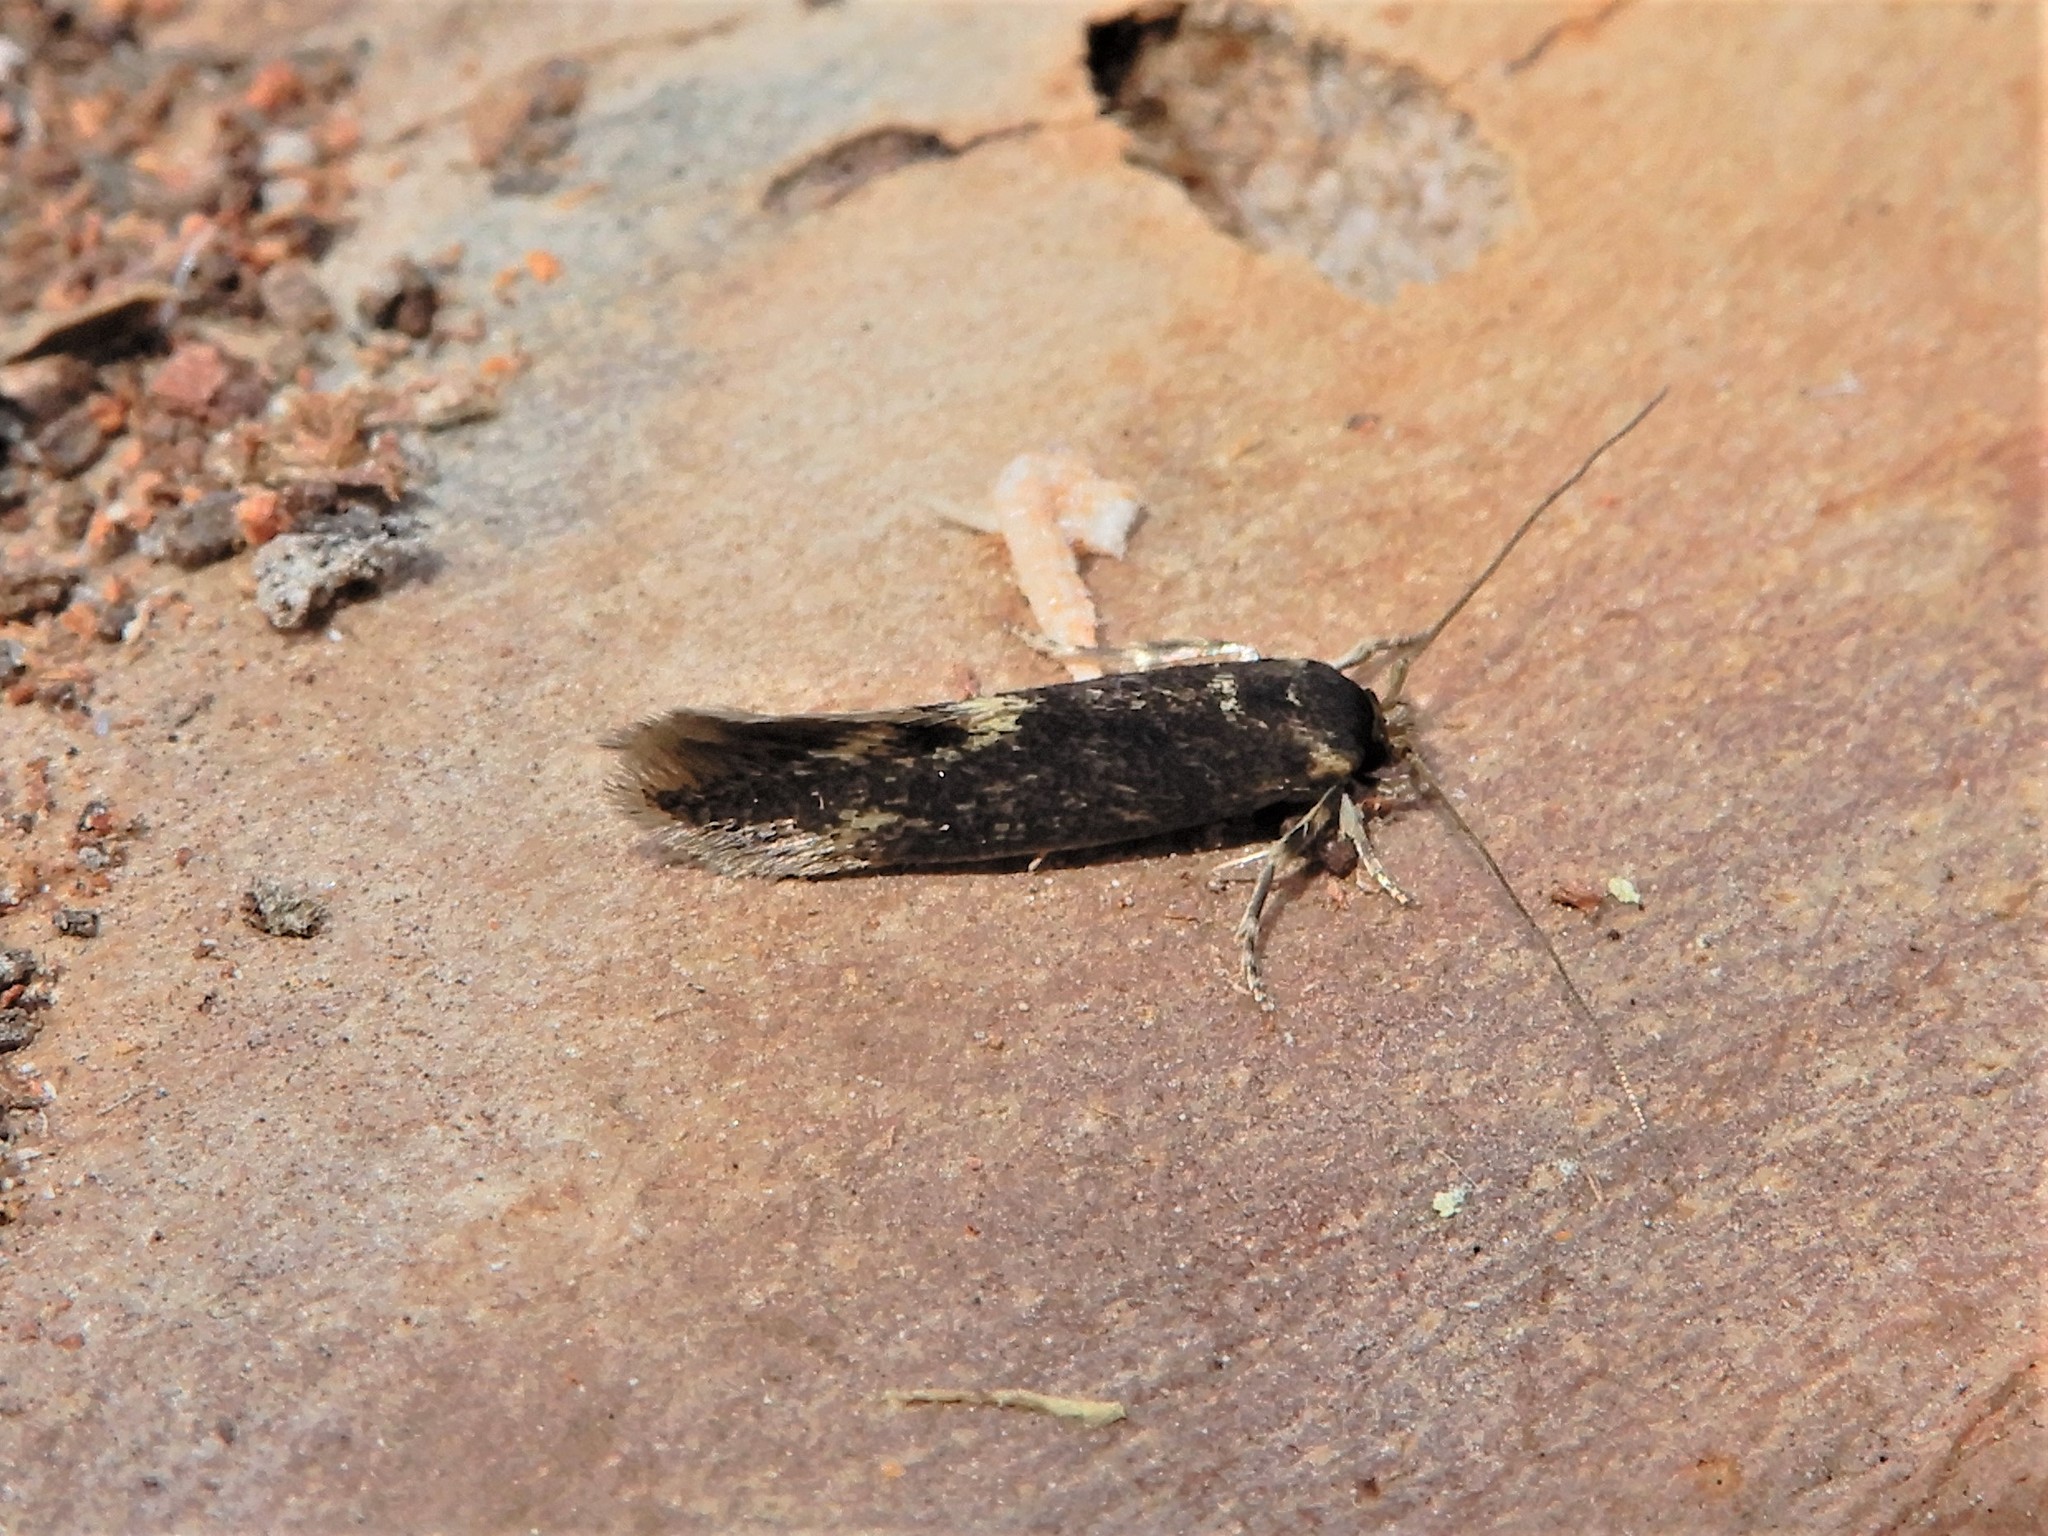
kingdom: Animalia
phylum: Arthropoda
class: Insecta
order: Lepidoptera
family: Tineidae
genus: Opogona
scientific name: Opogona omoscopa
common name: Moth
